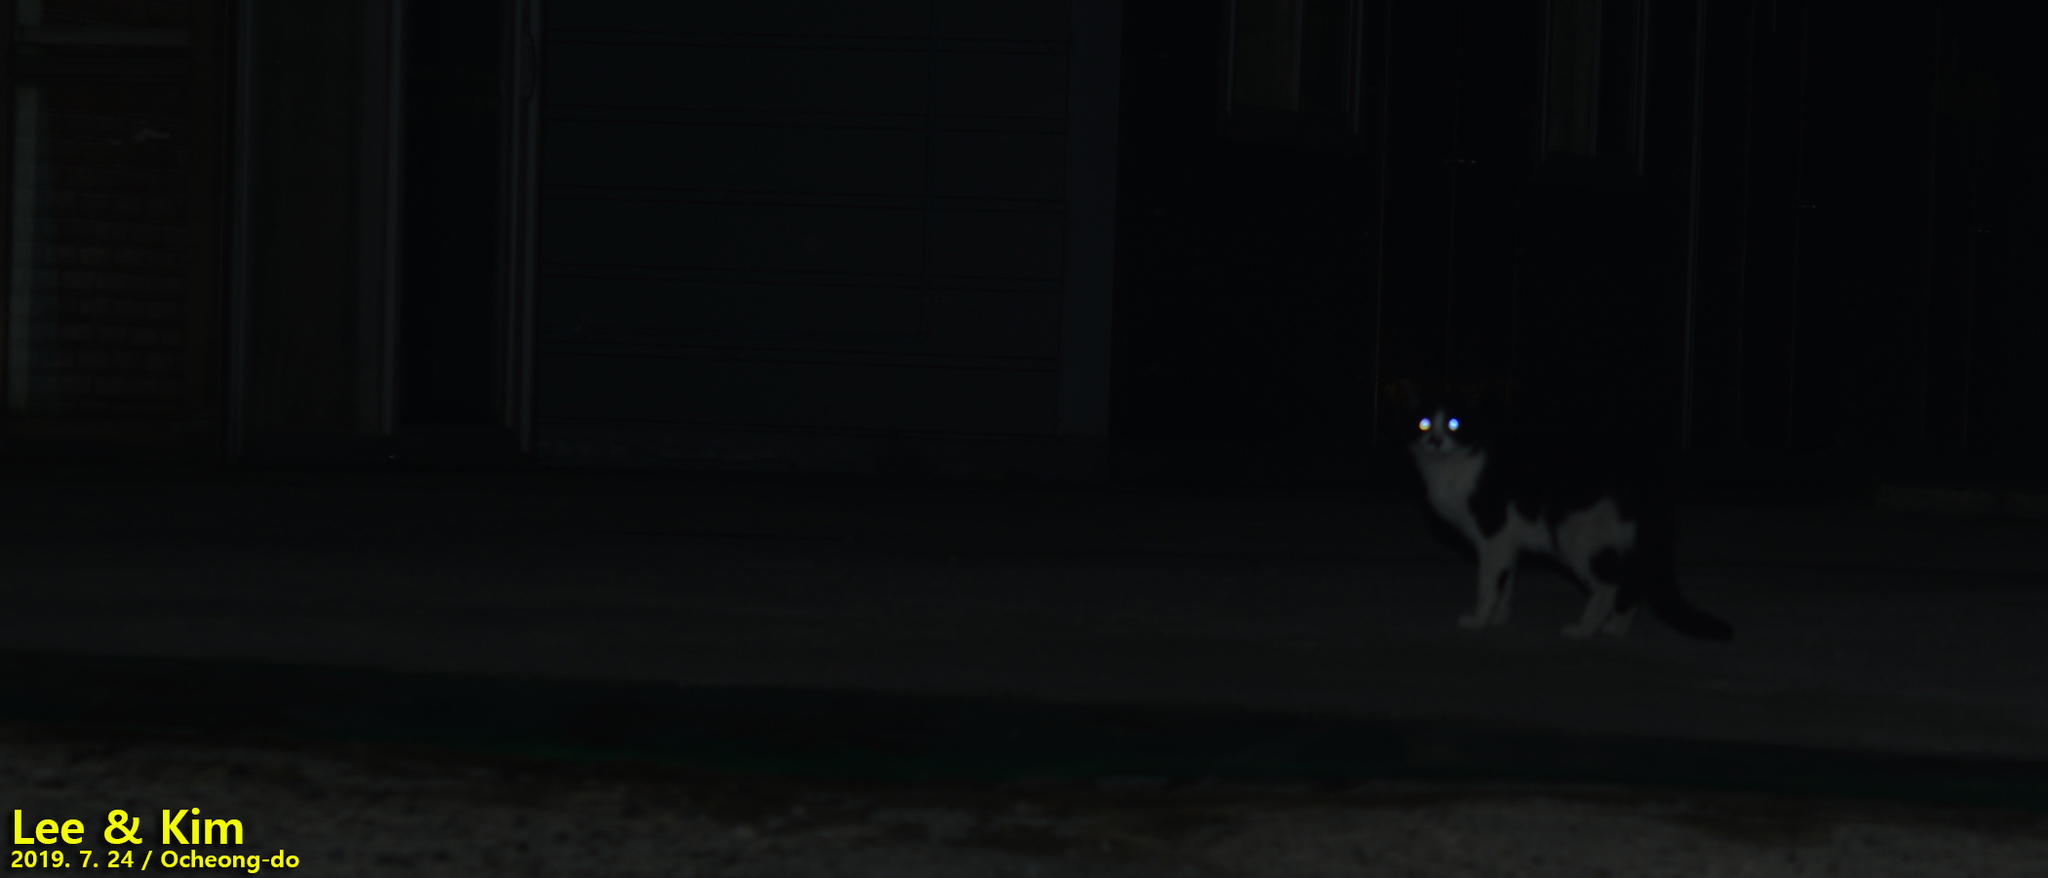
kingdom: Animalia
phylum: Chordata
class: Mammalia
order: Carnivora
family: Felidae
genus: Felis
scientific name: Felis catus
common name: Domestic cat
